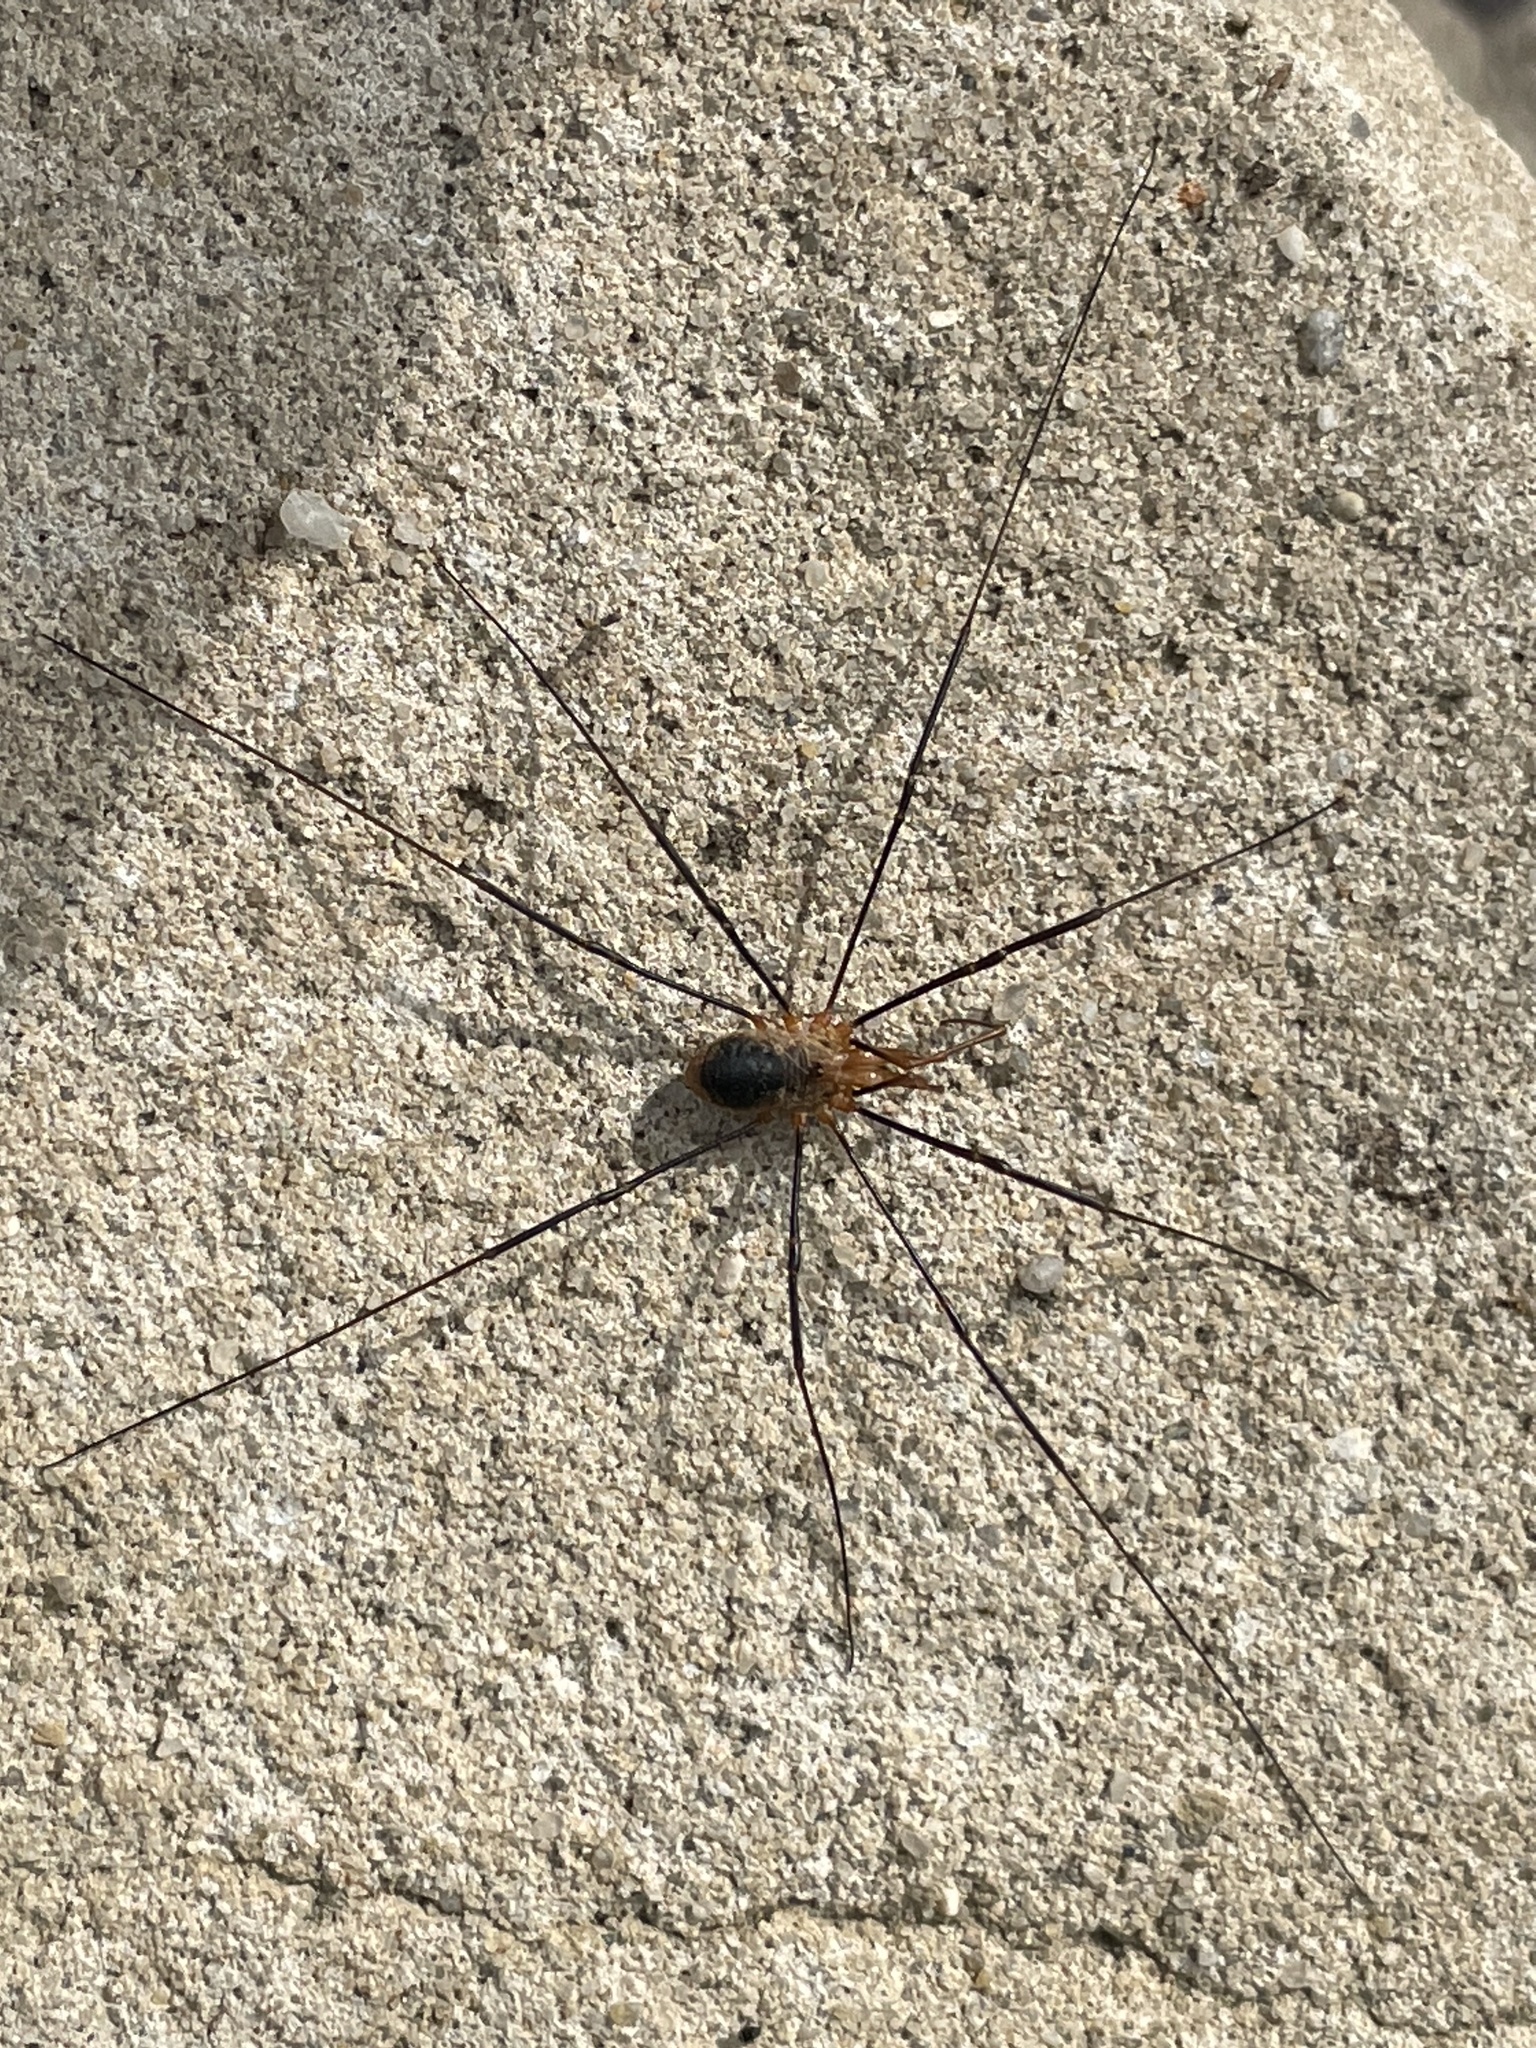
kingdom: Animalia
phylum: Arthropoda
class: Arachnida
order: Opiliones
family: Phalangiidae
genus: Phalangium
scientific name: Phalangium opilio
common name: Daddy longleg
